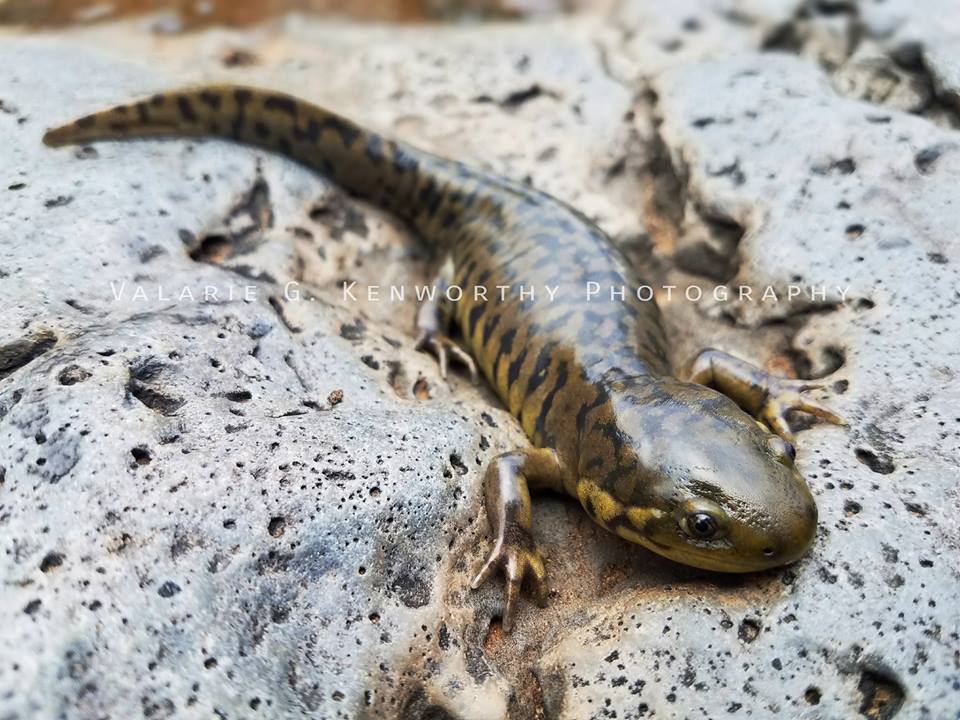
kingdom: Animalia
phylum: Chordata
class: Amphibia
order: Caudata
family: Ambystomatidae
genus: Ambystoma
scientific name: Ambystoma mavortium
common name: Western tiger salamander
